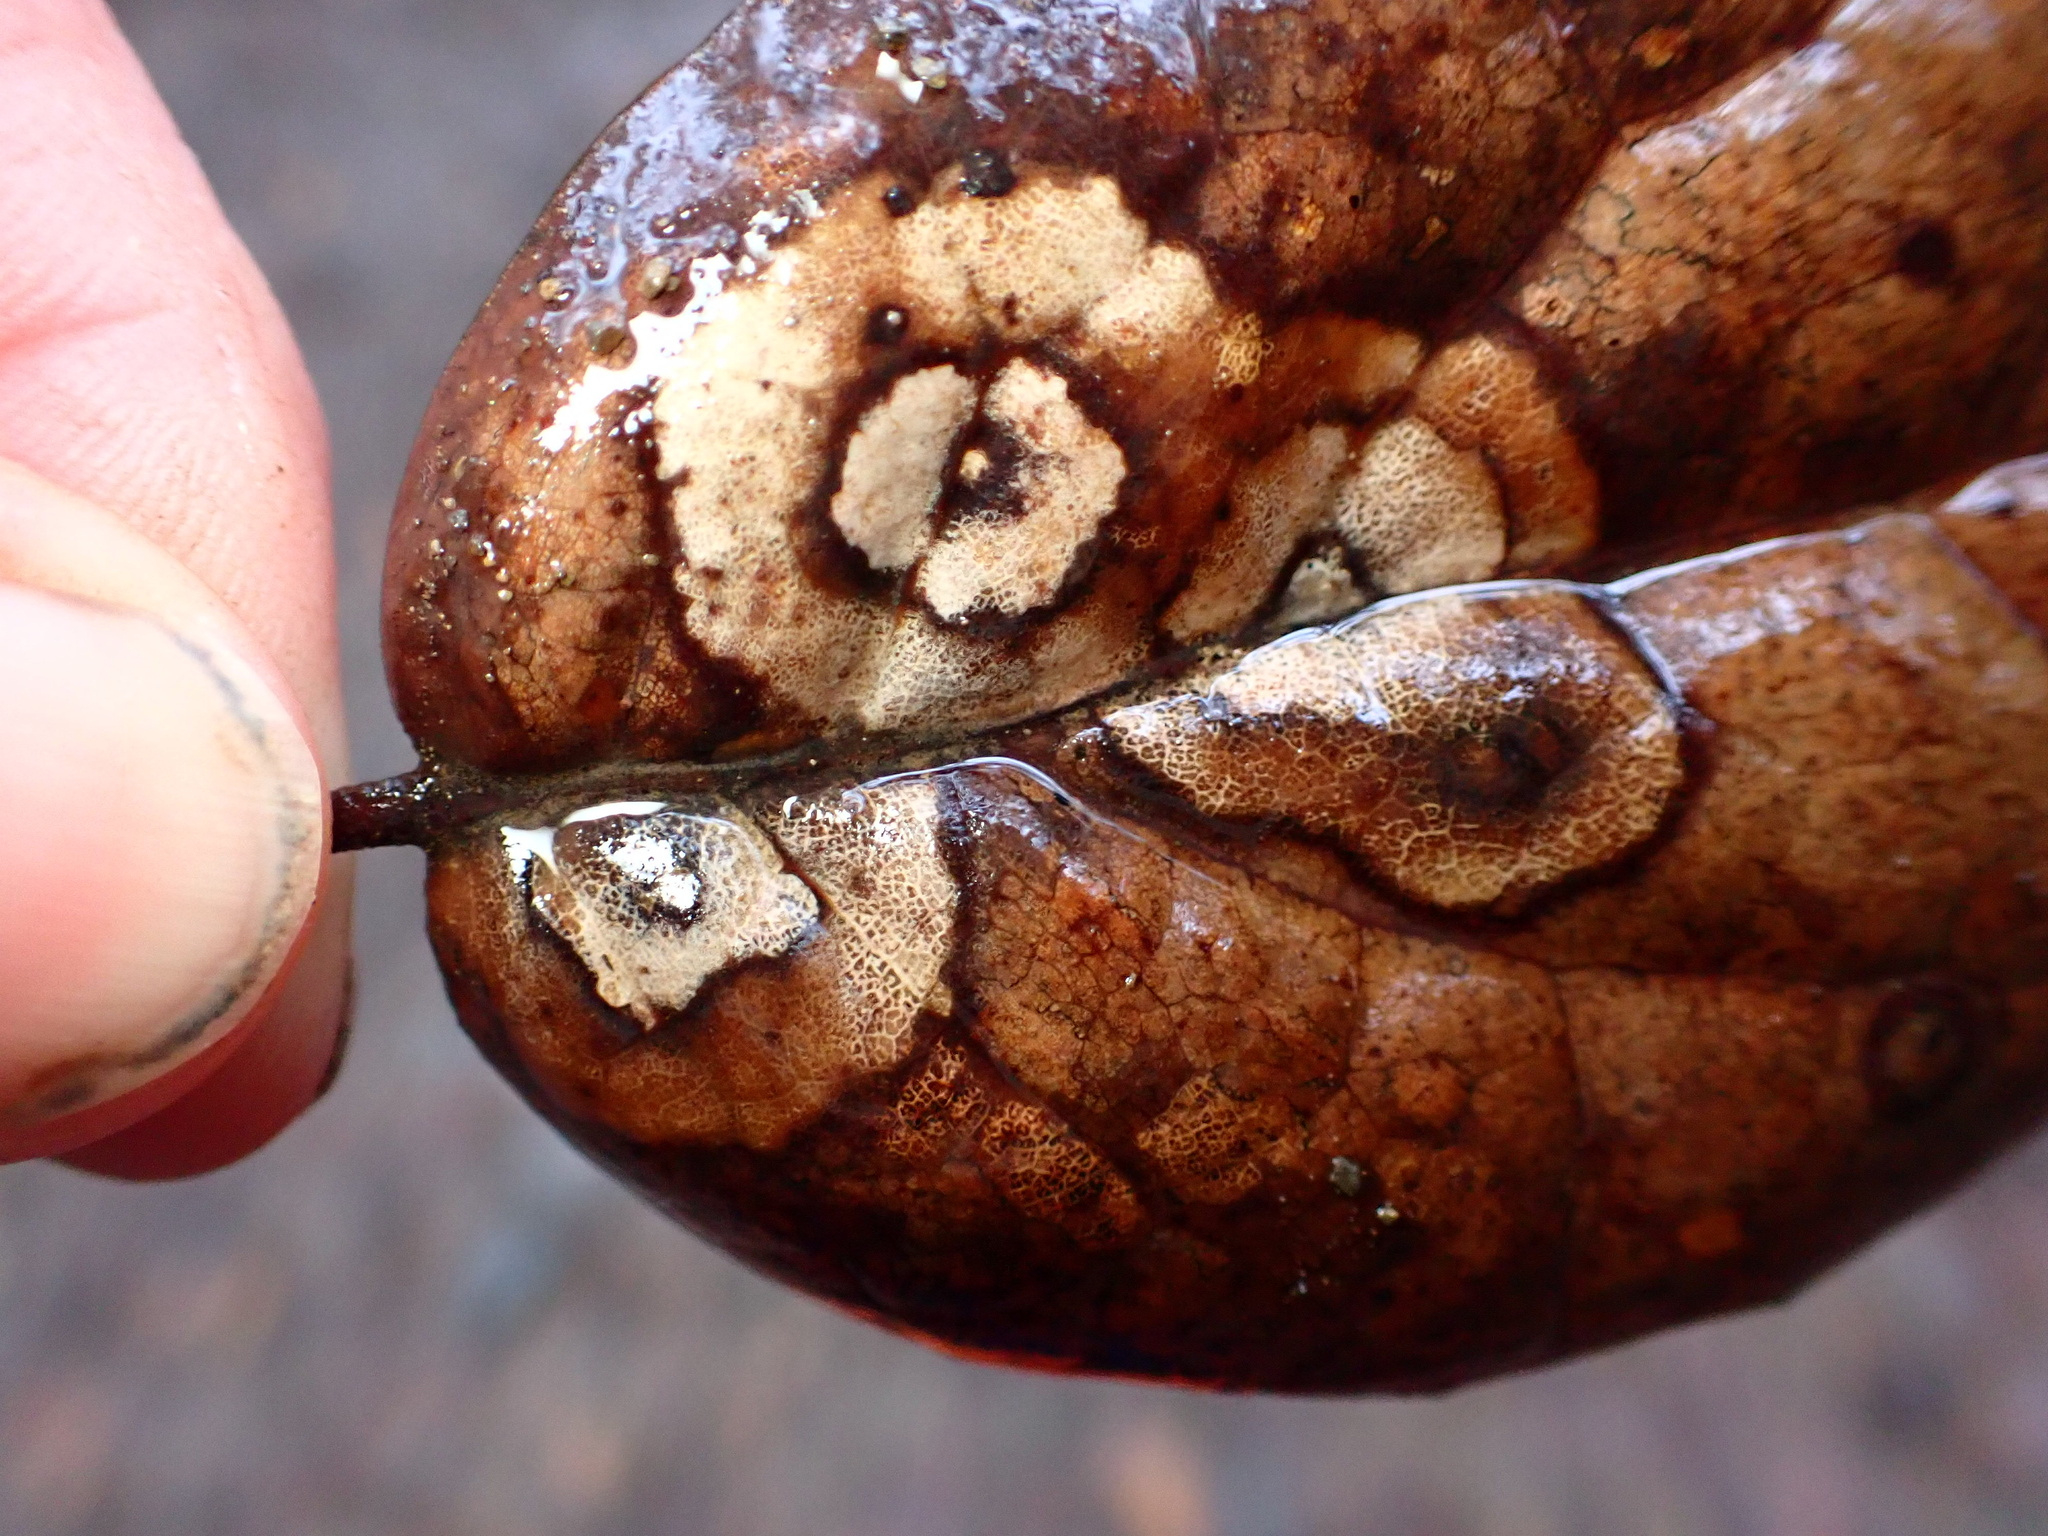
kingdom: Fungi
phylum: Ascomycota
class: Sordariomycetes
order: Diaporthales
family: Tubakiaceae
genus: Tubakia
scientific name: Tubakia californica
